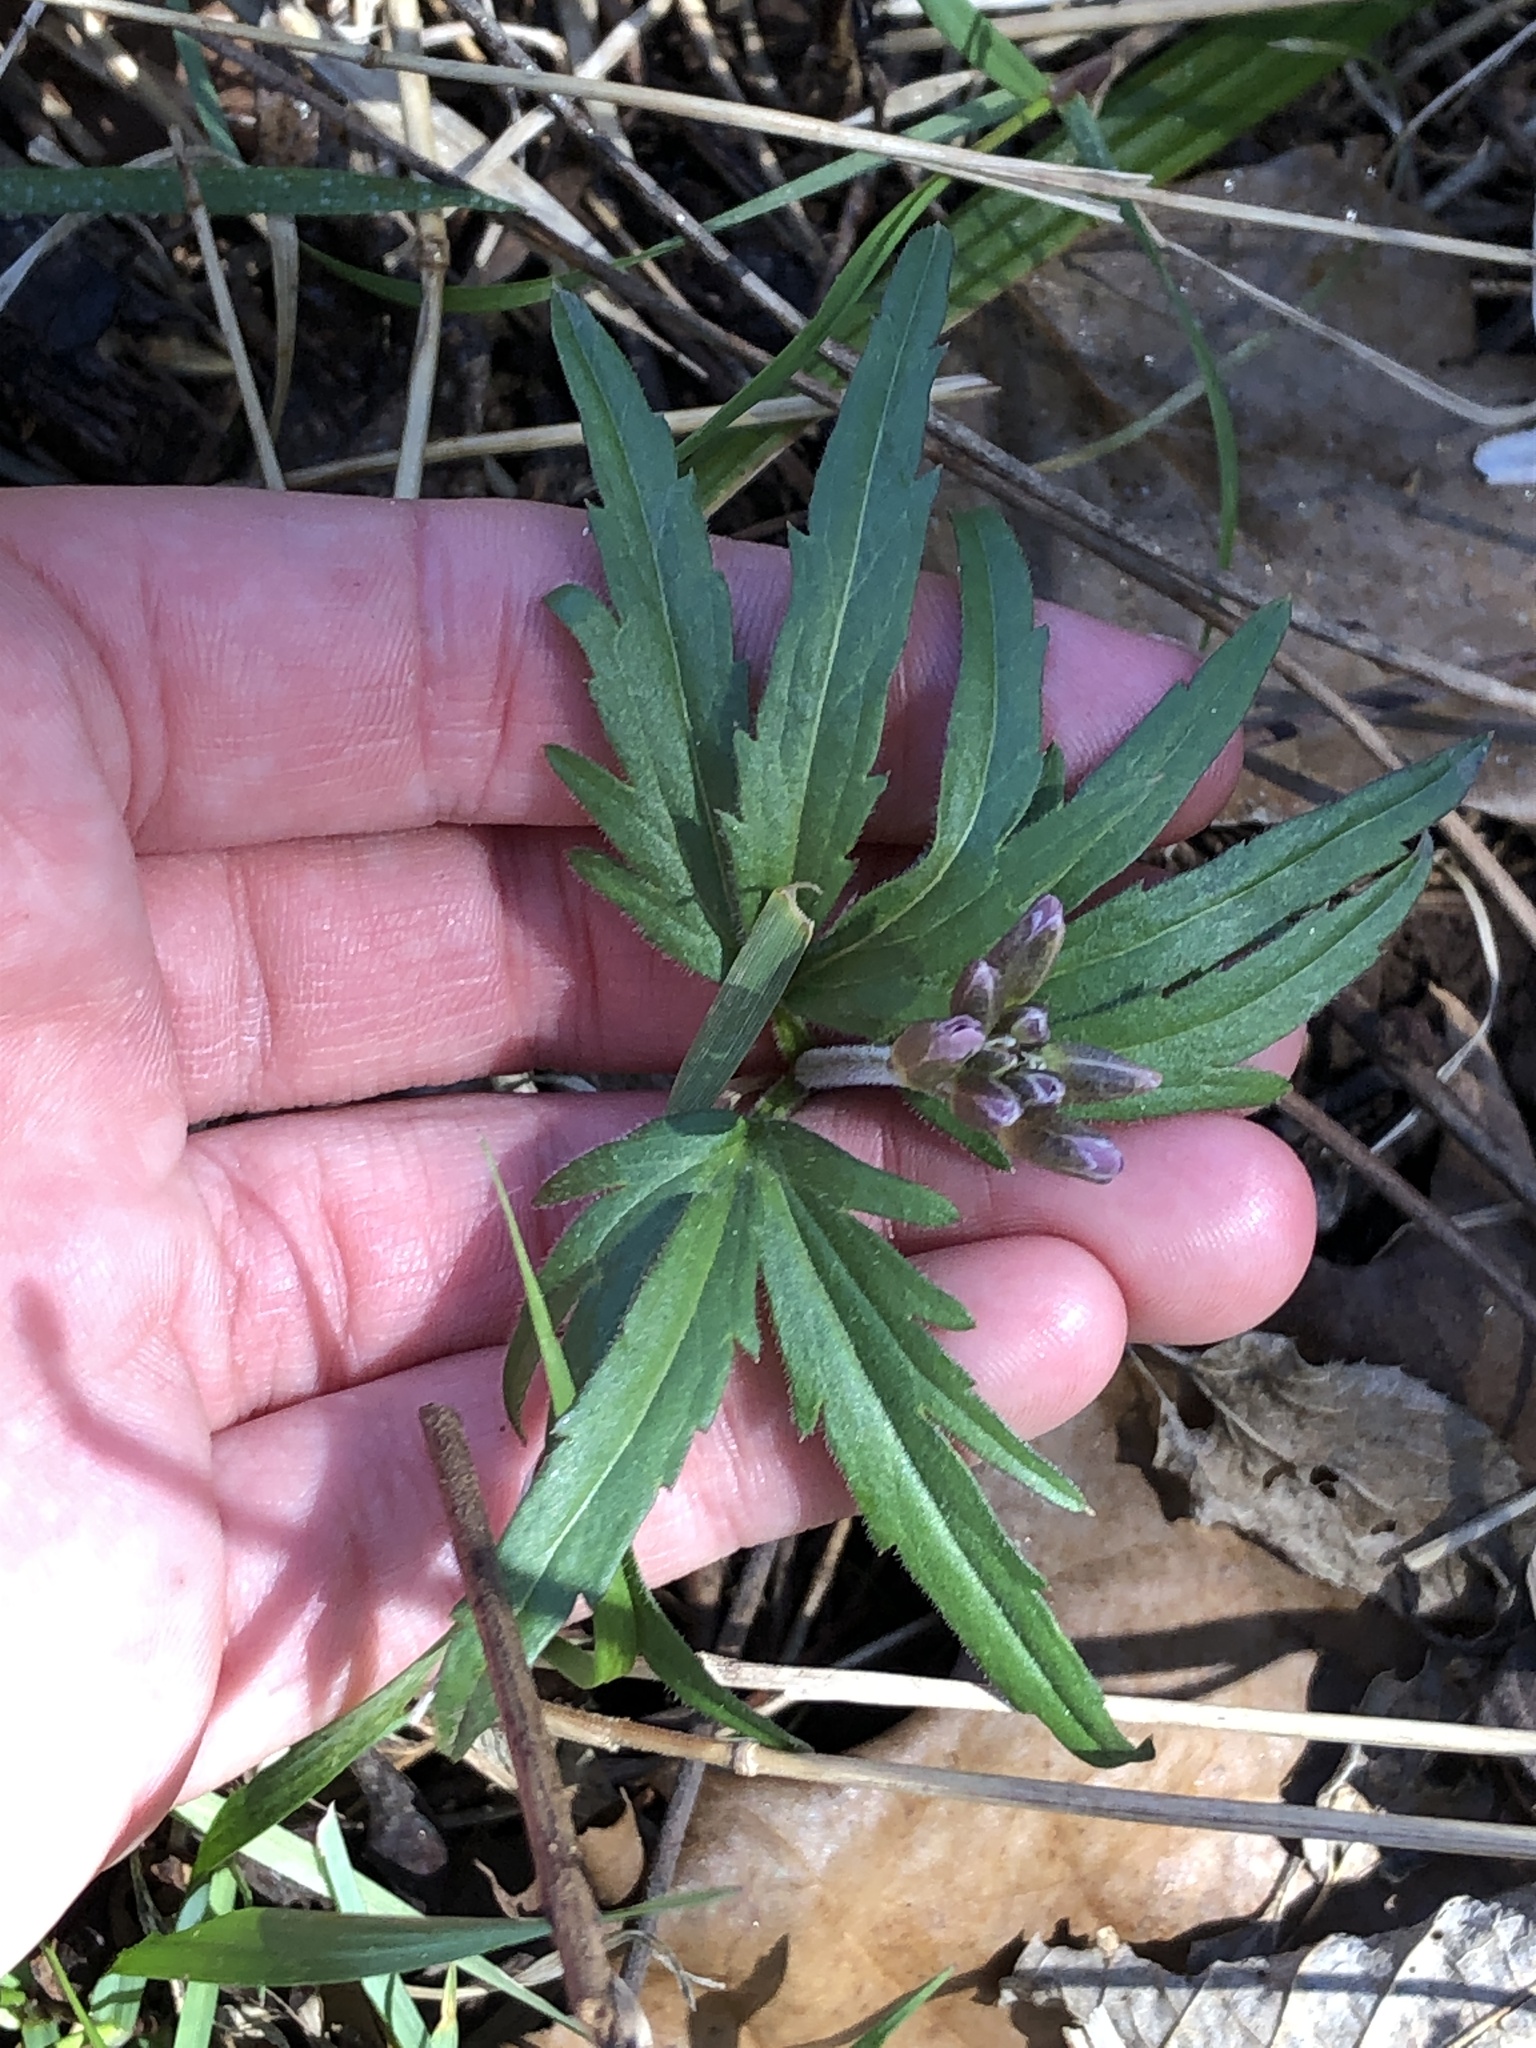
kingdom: Plantae
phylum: Tracheophyta
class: Magnoliopsida
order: Brassicales
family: Brassicaceae
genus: Cardamine
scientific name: Cardamine concatenata
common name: Cut-leaf toothcup
